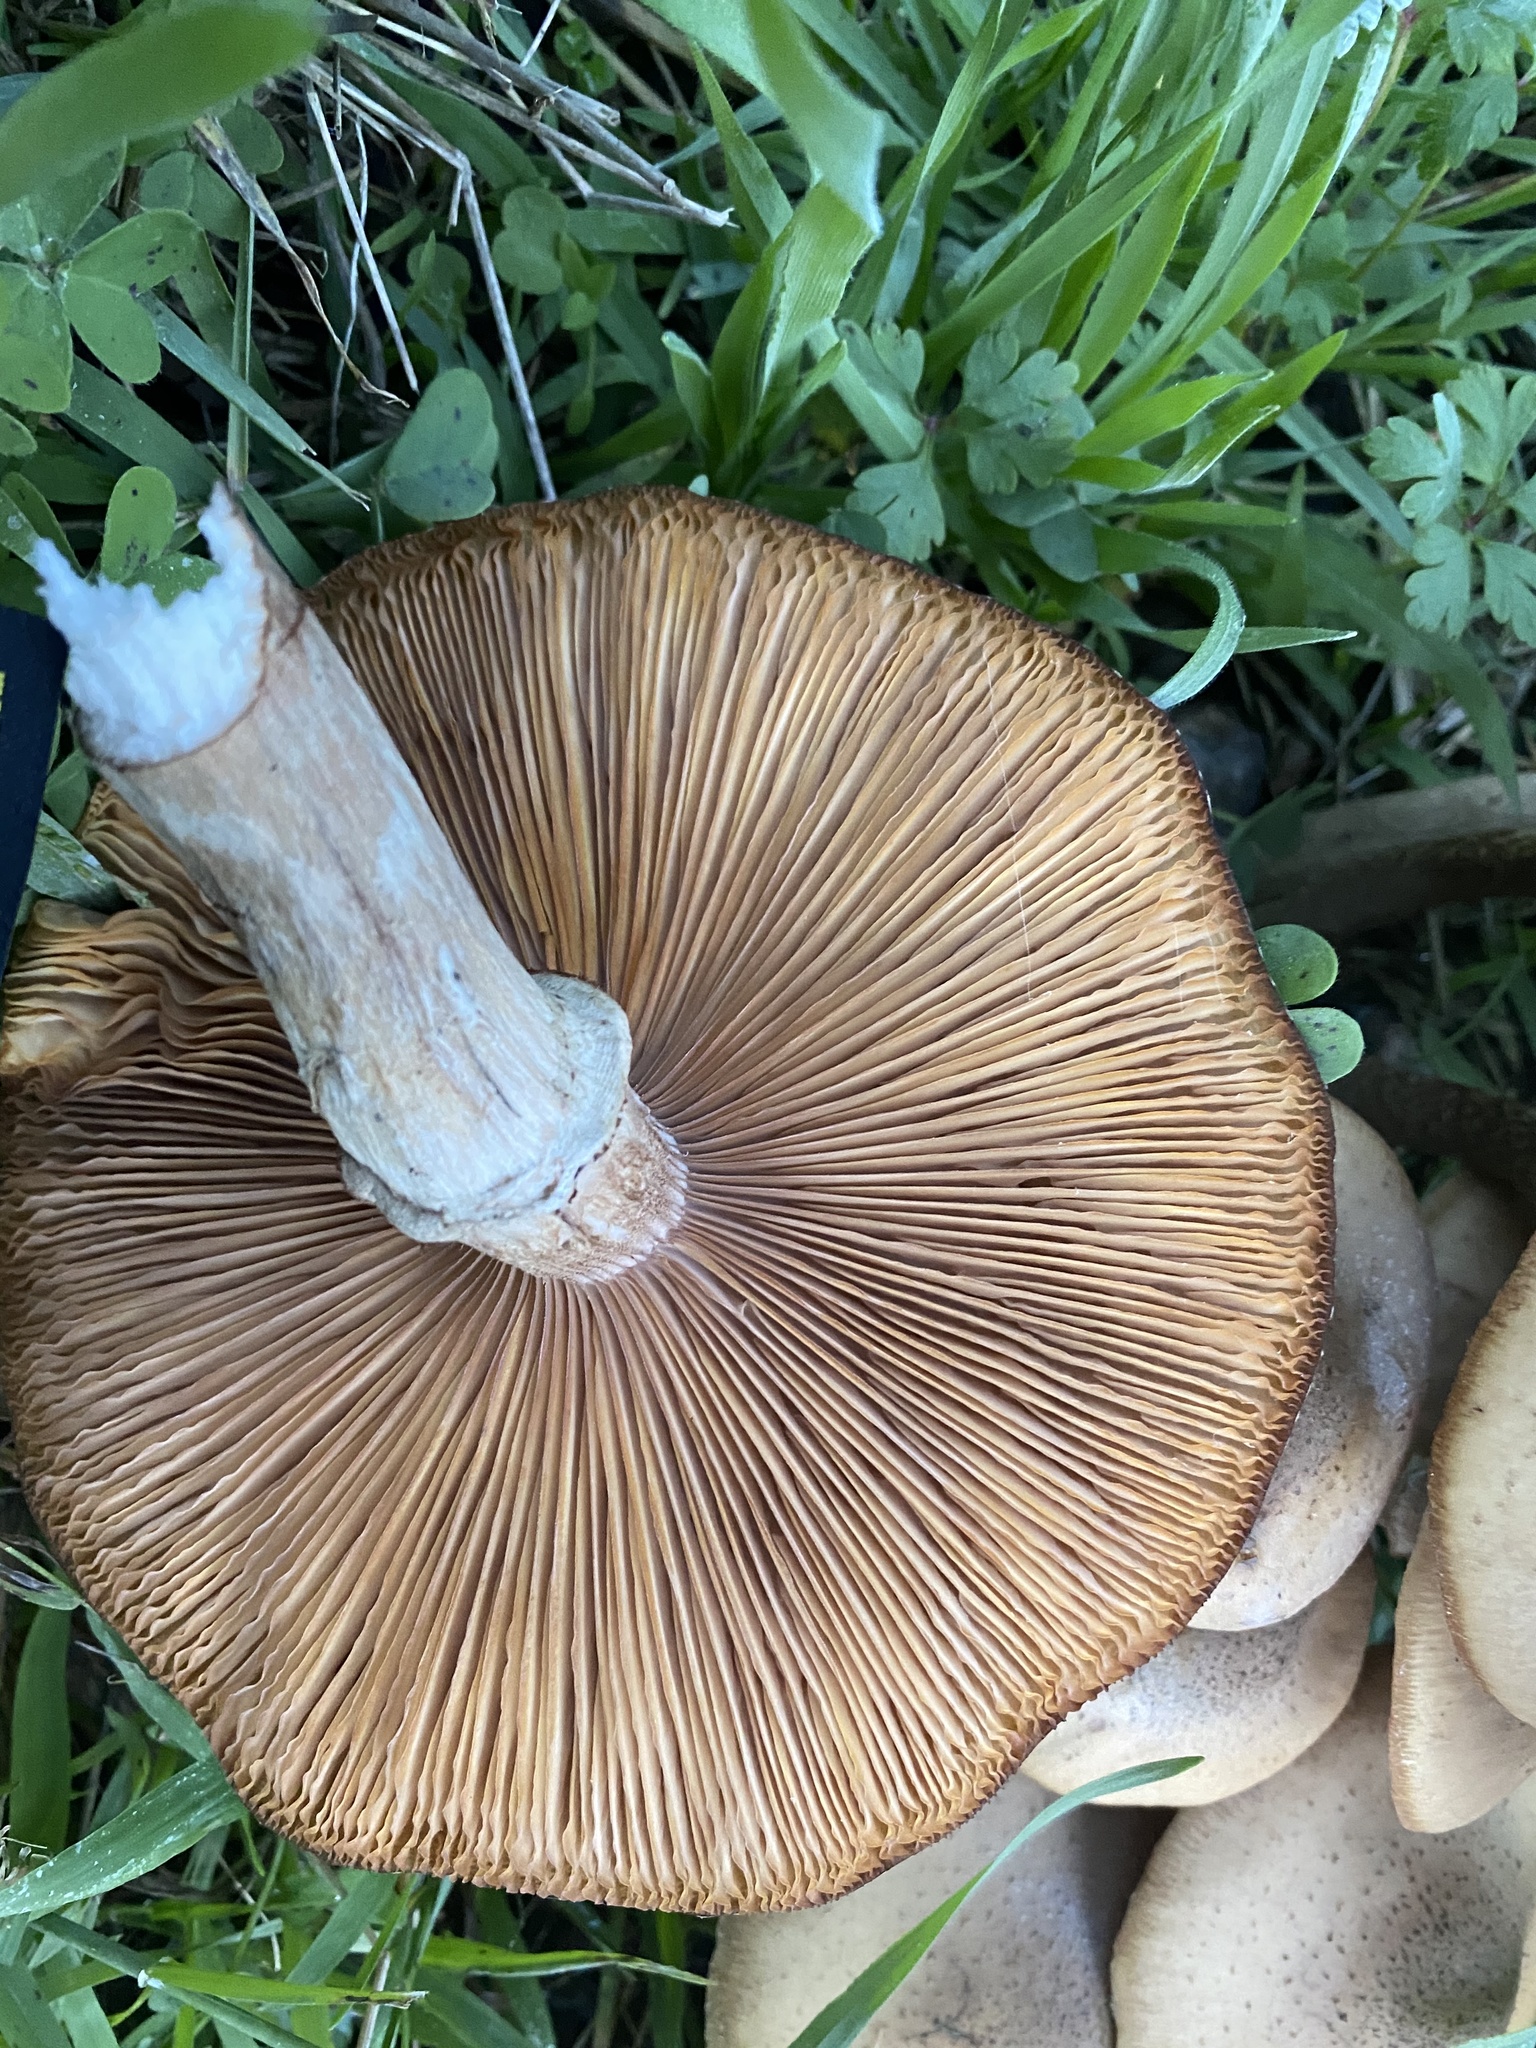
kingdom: Fungi
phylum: Basidiomycota
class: Agaricomycetes
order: Agaricales
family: Physalacriaceae
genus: Armillaria
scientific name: Armillaria mellea
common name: Honey fungus
